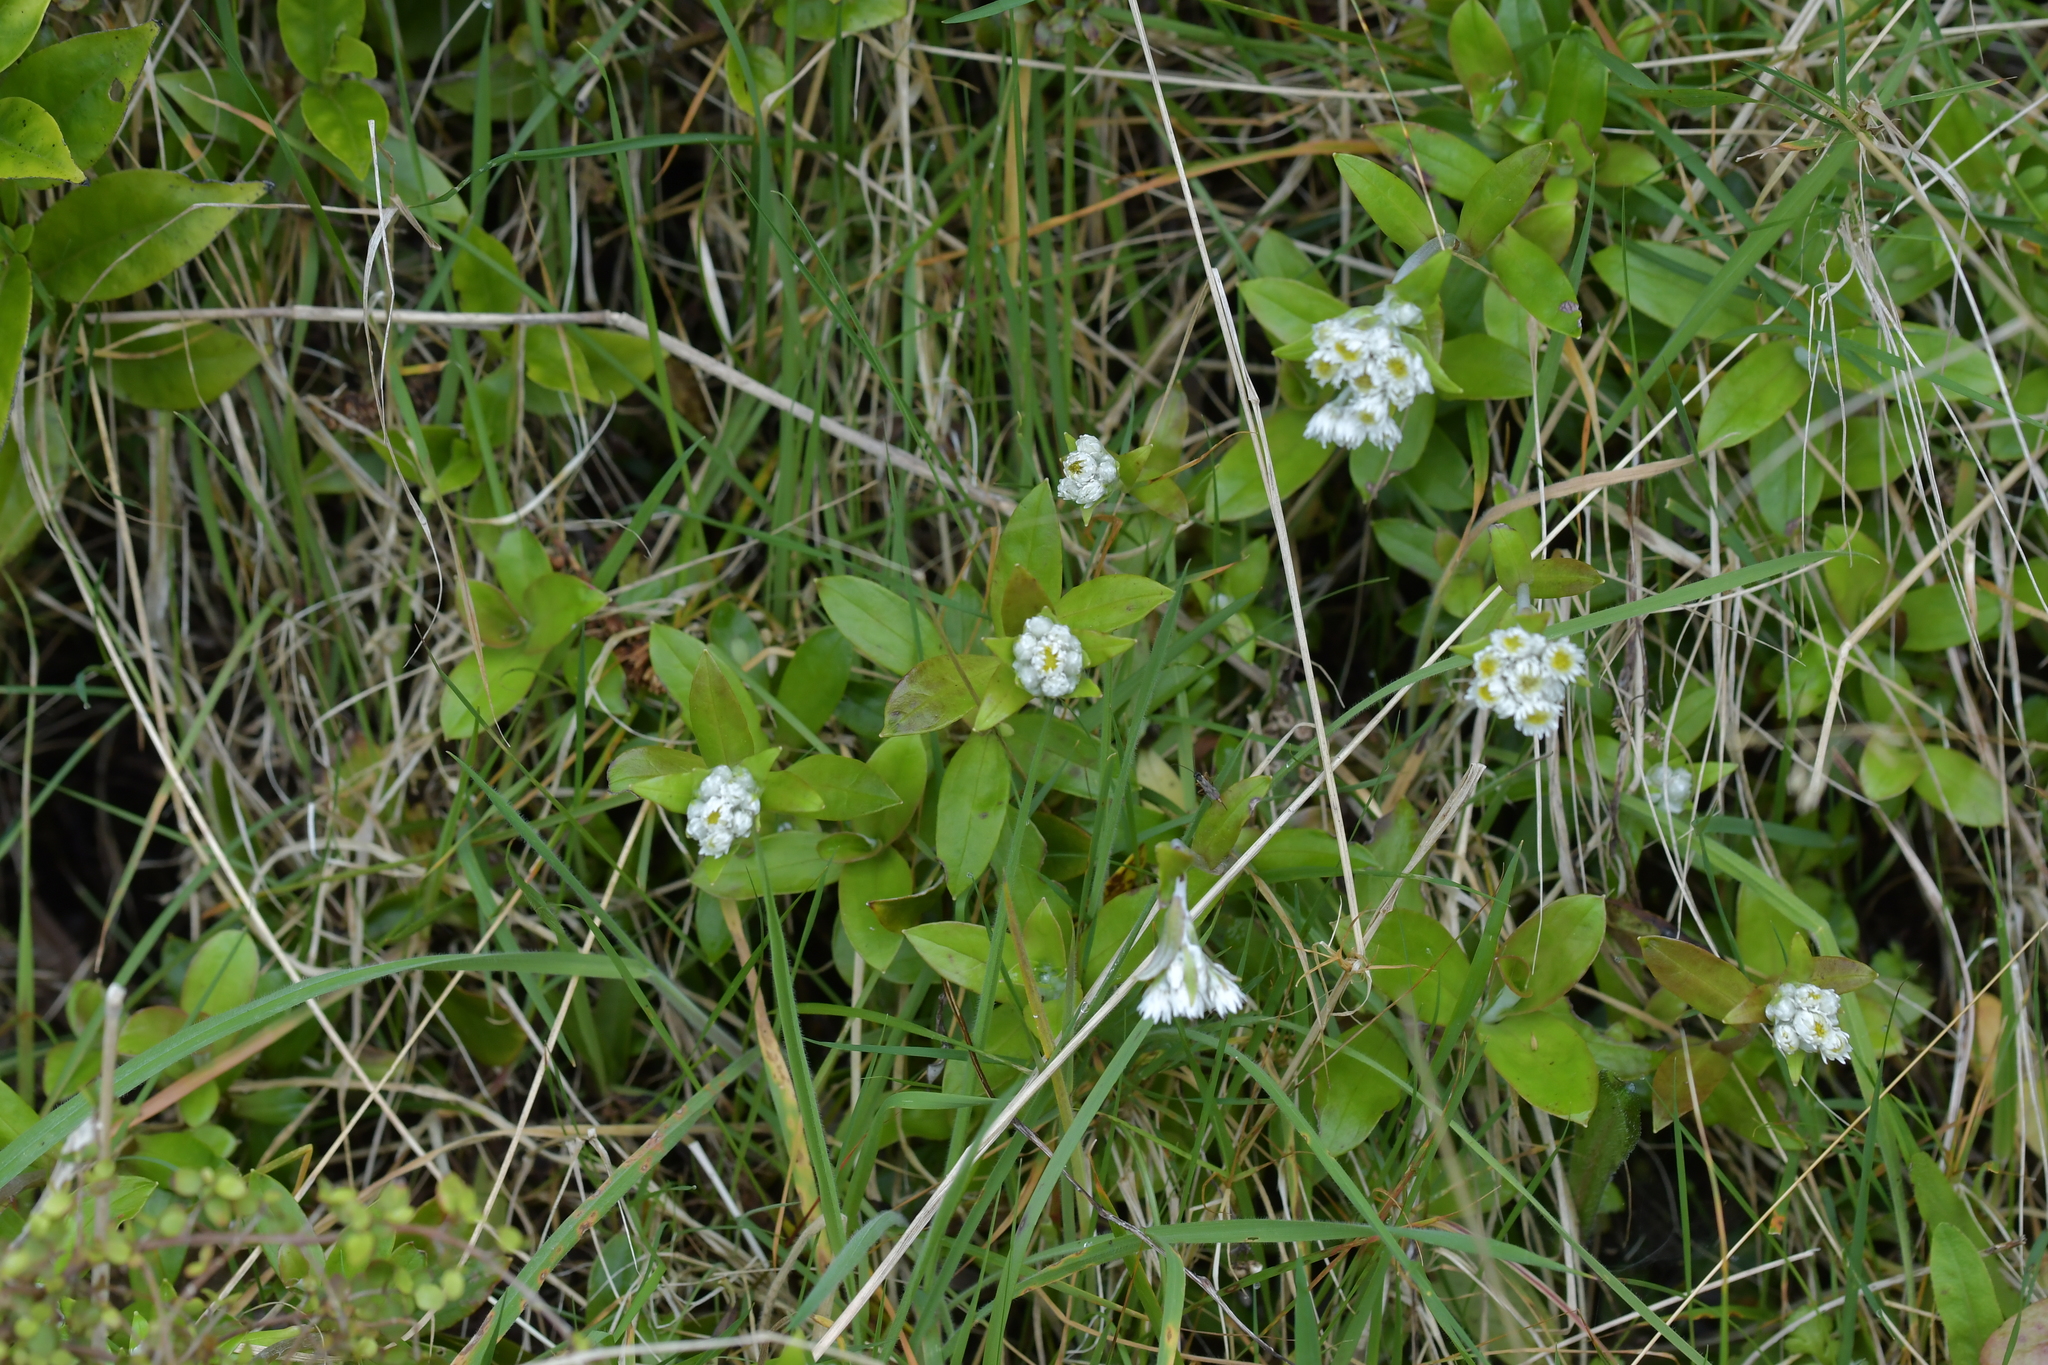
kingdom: Plantae
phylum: Tracheophyta
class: Magnoliopsida
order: Asterales
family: Asteraceae
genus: Anaphalioides
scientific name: Anaphalioides trinervis
